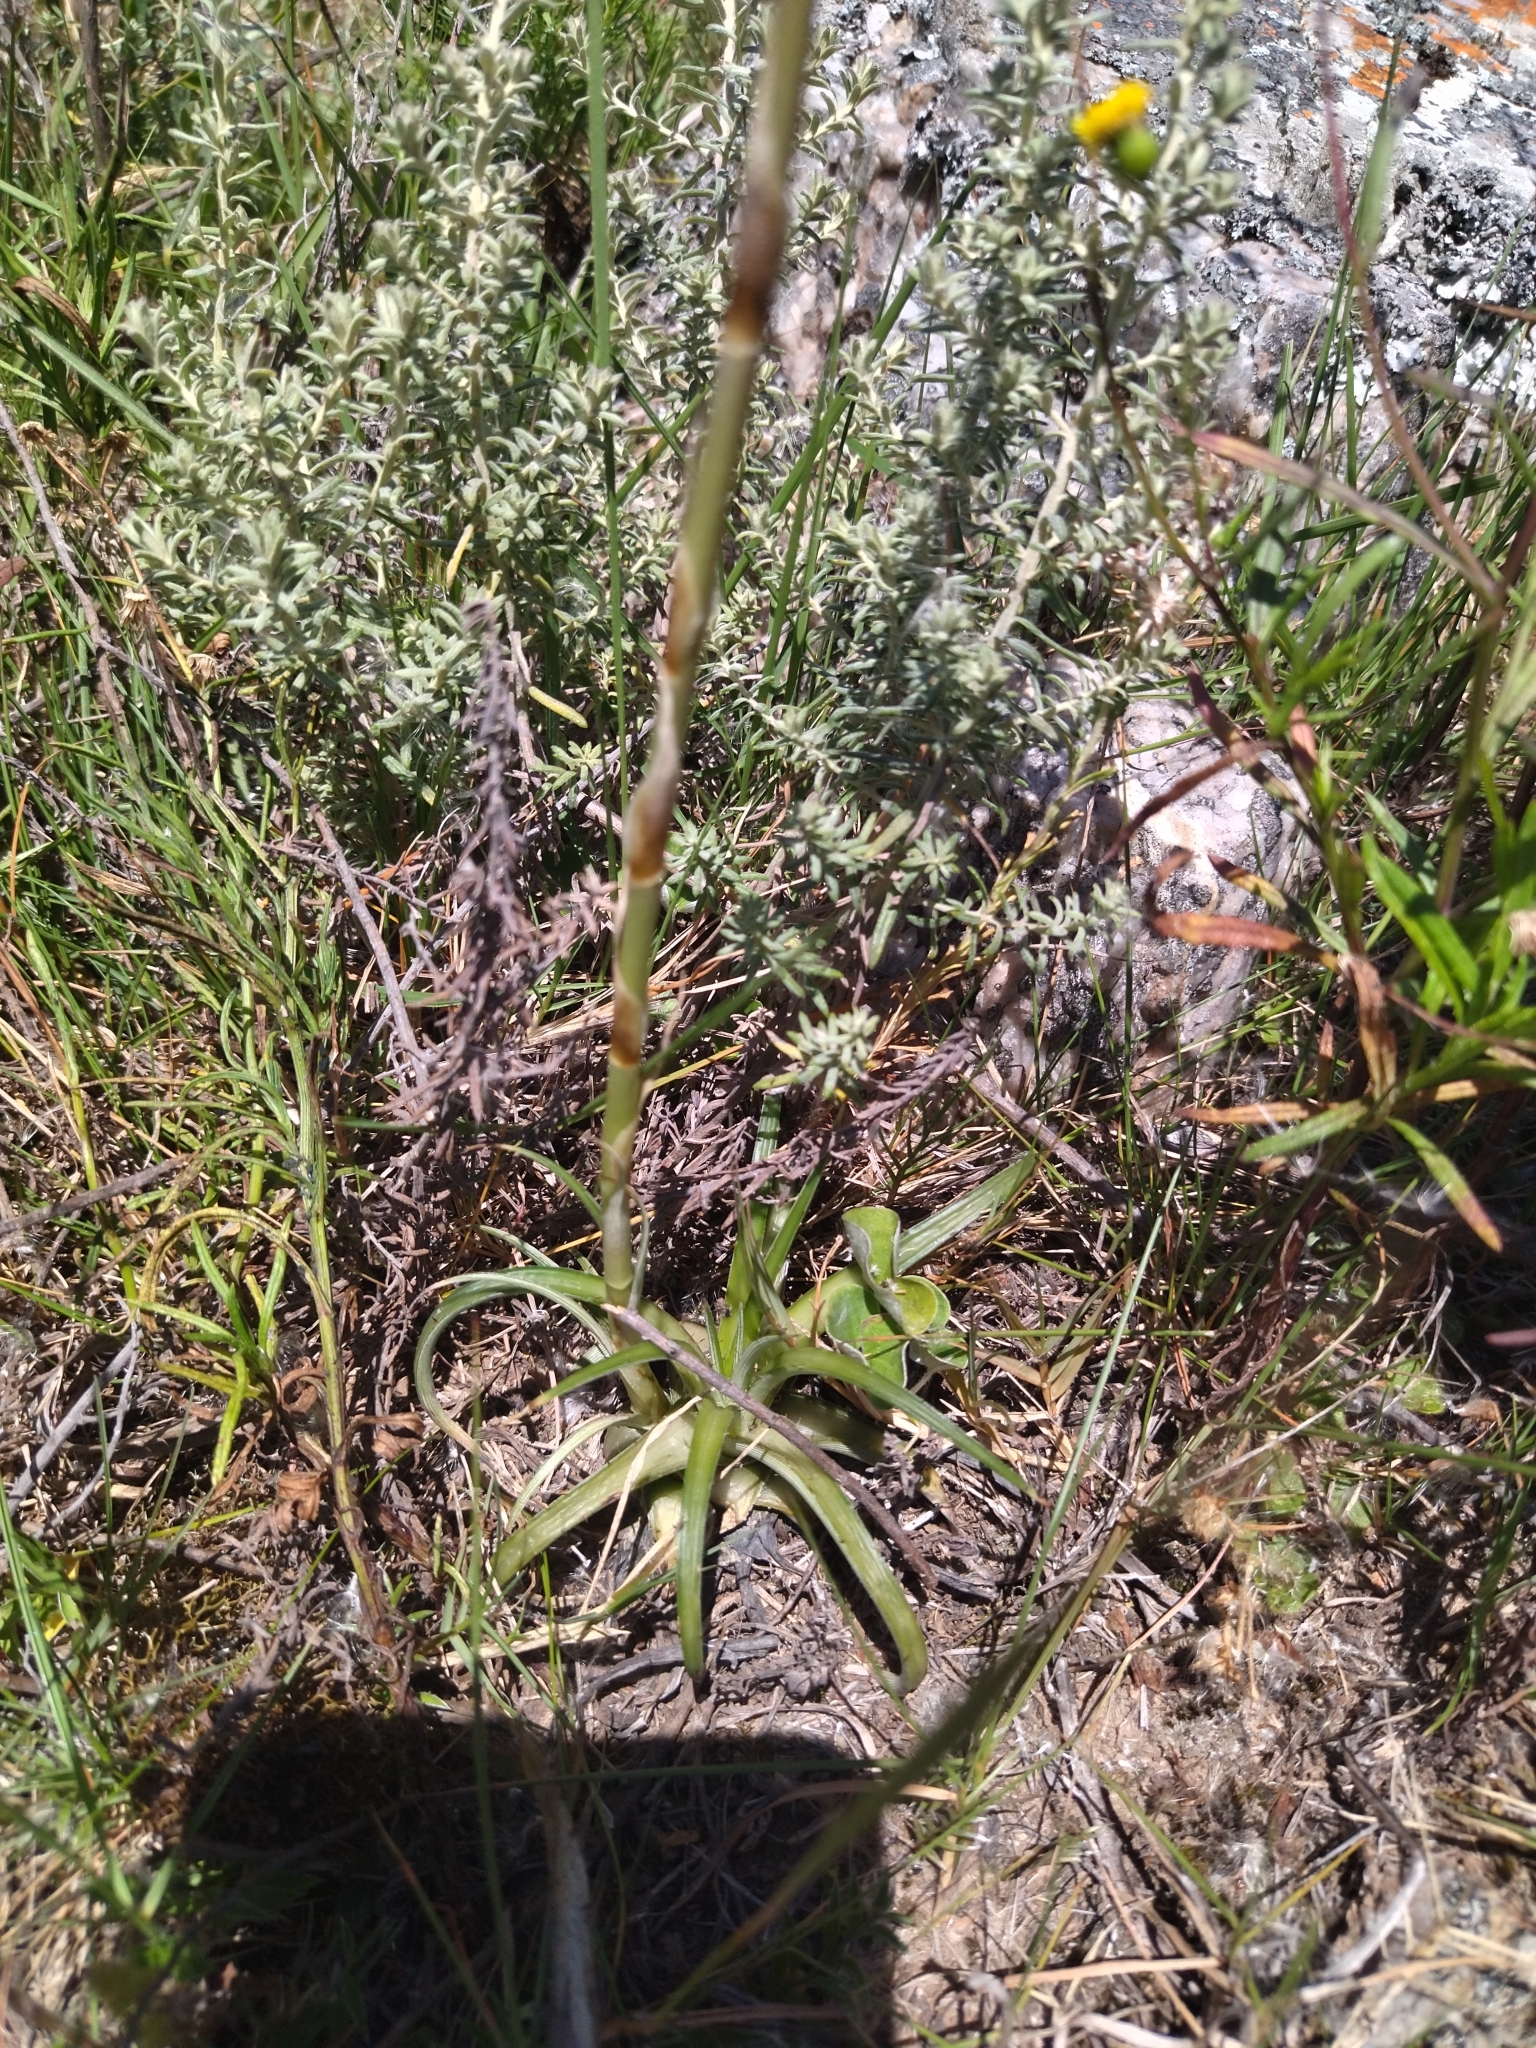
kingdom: Plantae
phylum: Tracheophyta
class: Liliopsida
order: Poales
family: Bromeliaceae
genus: Dyckia
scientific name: Dyckia remotiflora
